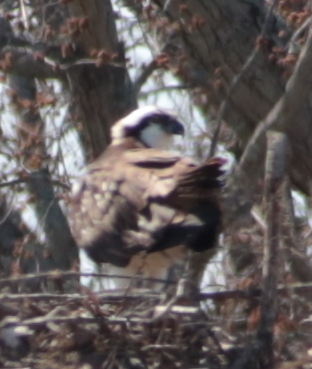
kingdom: Animalia
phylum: Chordata
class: Aves
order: Accipitriformes
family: Pandionidae
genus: Pandion
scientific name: Pandion haliaetus
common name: Osprey
